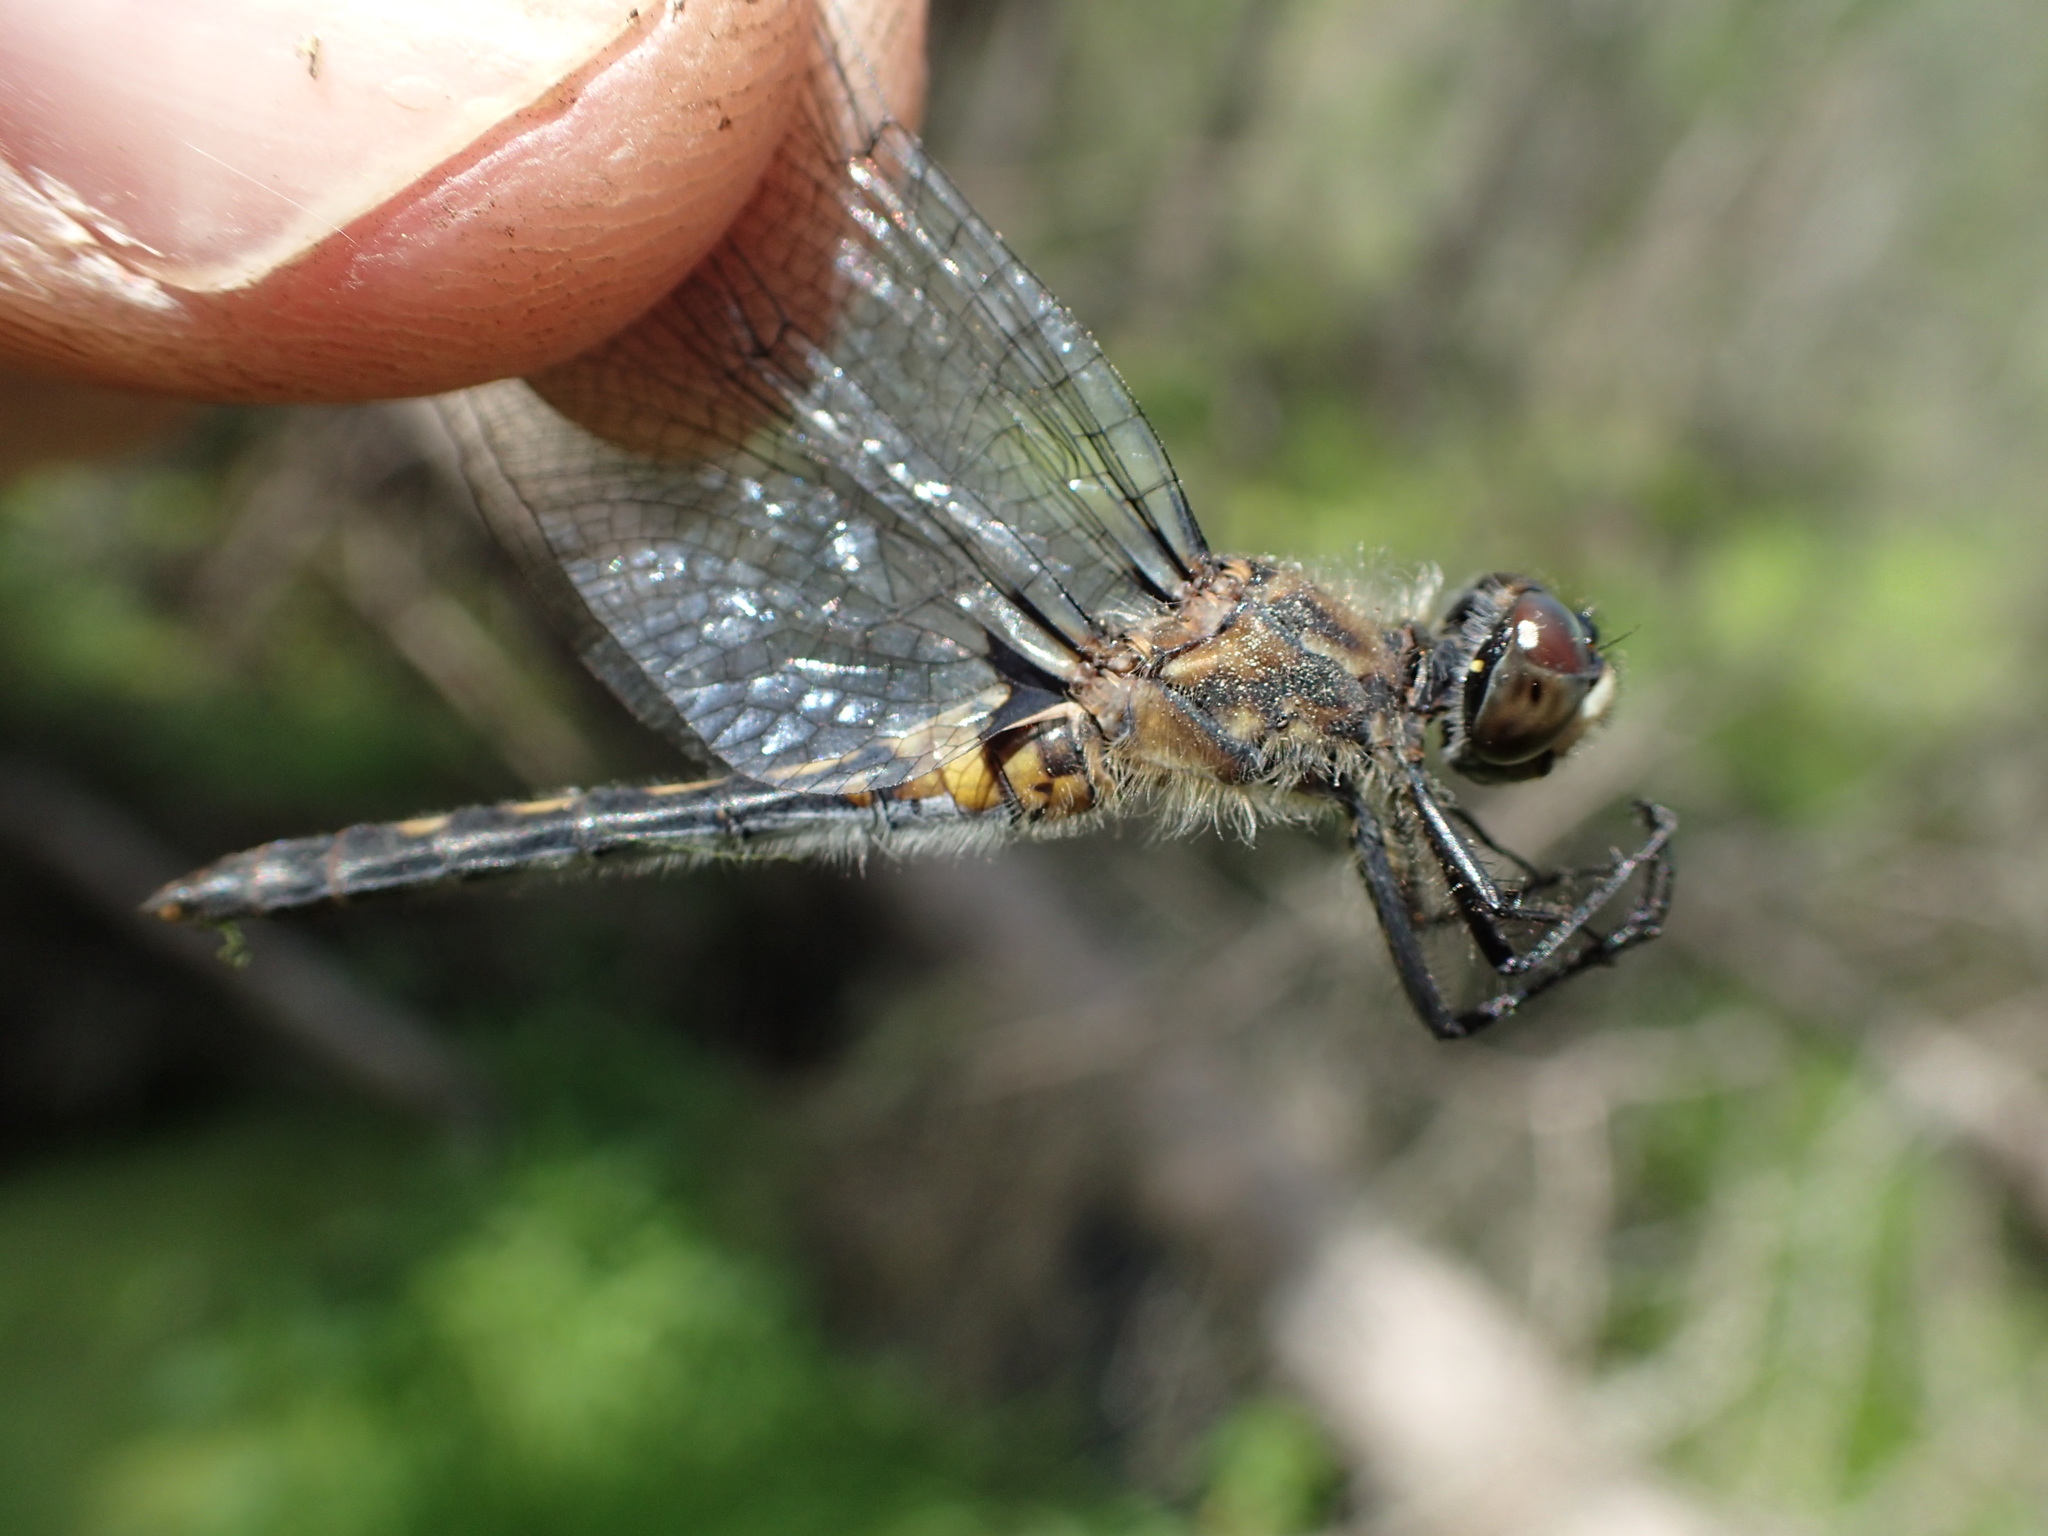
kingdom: Animalia
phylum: Arthropoda
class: Insecta
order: Odonata
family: Libellulidae
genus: Leucorrhinia
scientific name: Leucorrhinia intacta
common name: Dot-tailed whiteface
